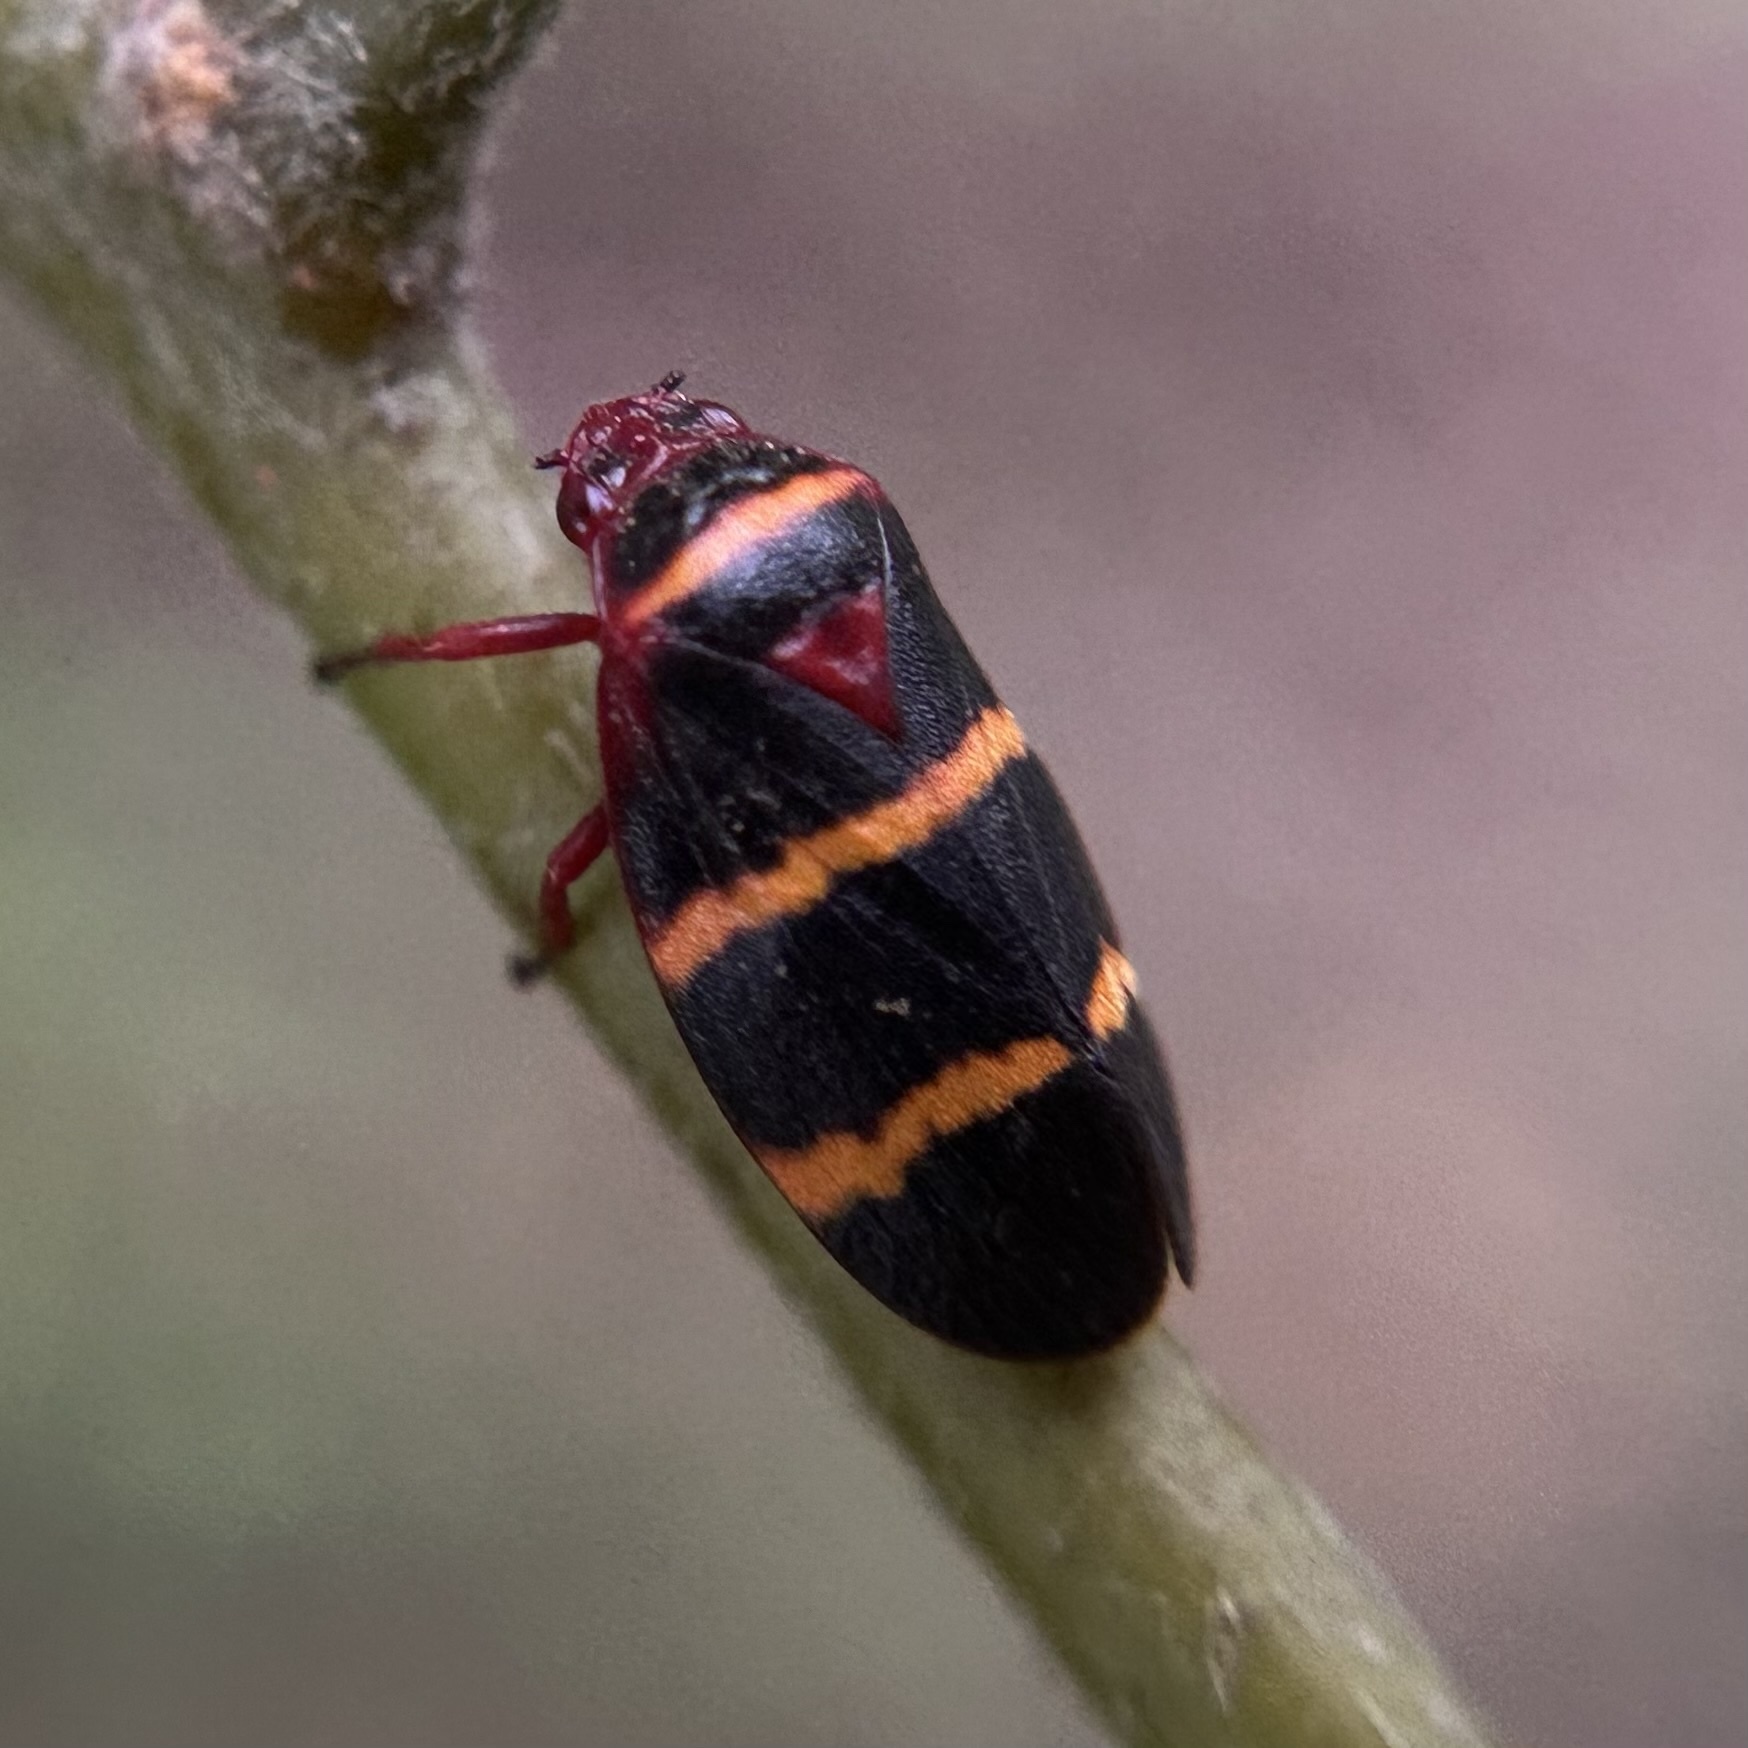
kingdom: Animalia
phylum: Arthropoda
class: Insecta
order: Hemiptera
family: Cercopidae
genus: Prosapia
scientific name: Prosapia bicincta
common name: Twolined spittlebug
